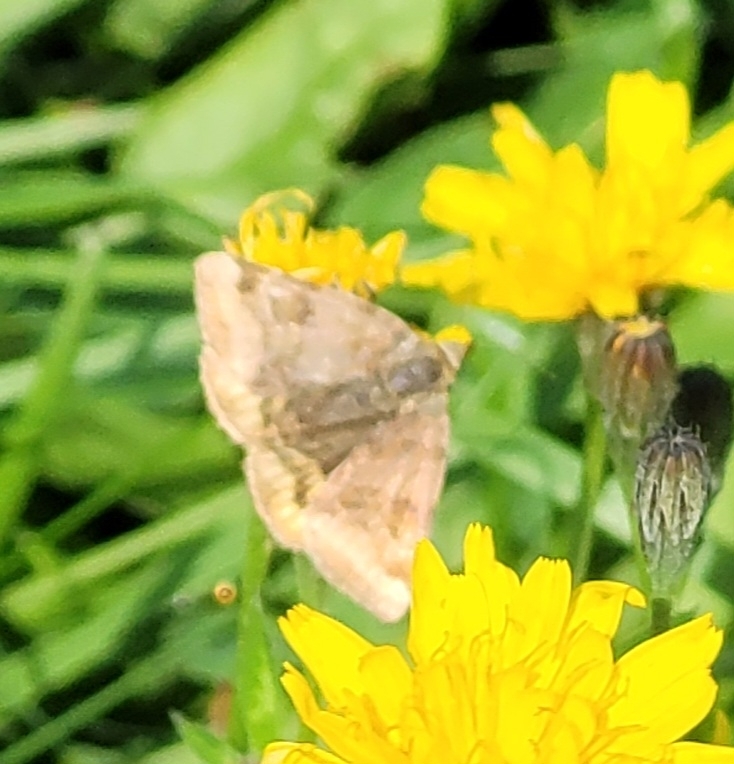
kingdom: Animalia
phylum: Arthropoda
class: Insecta
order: Lepidoptera
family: Erebidae
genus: Euclidia
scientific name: Euclidia glyphica
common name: Burnet companion
